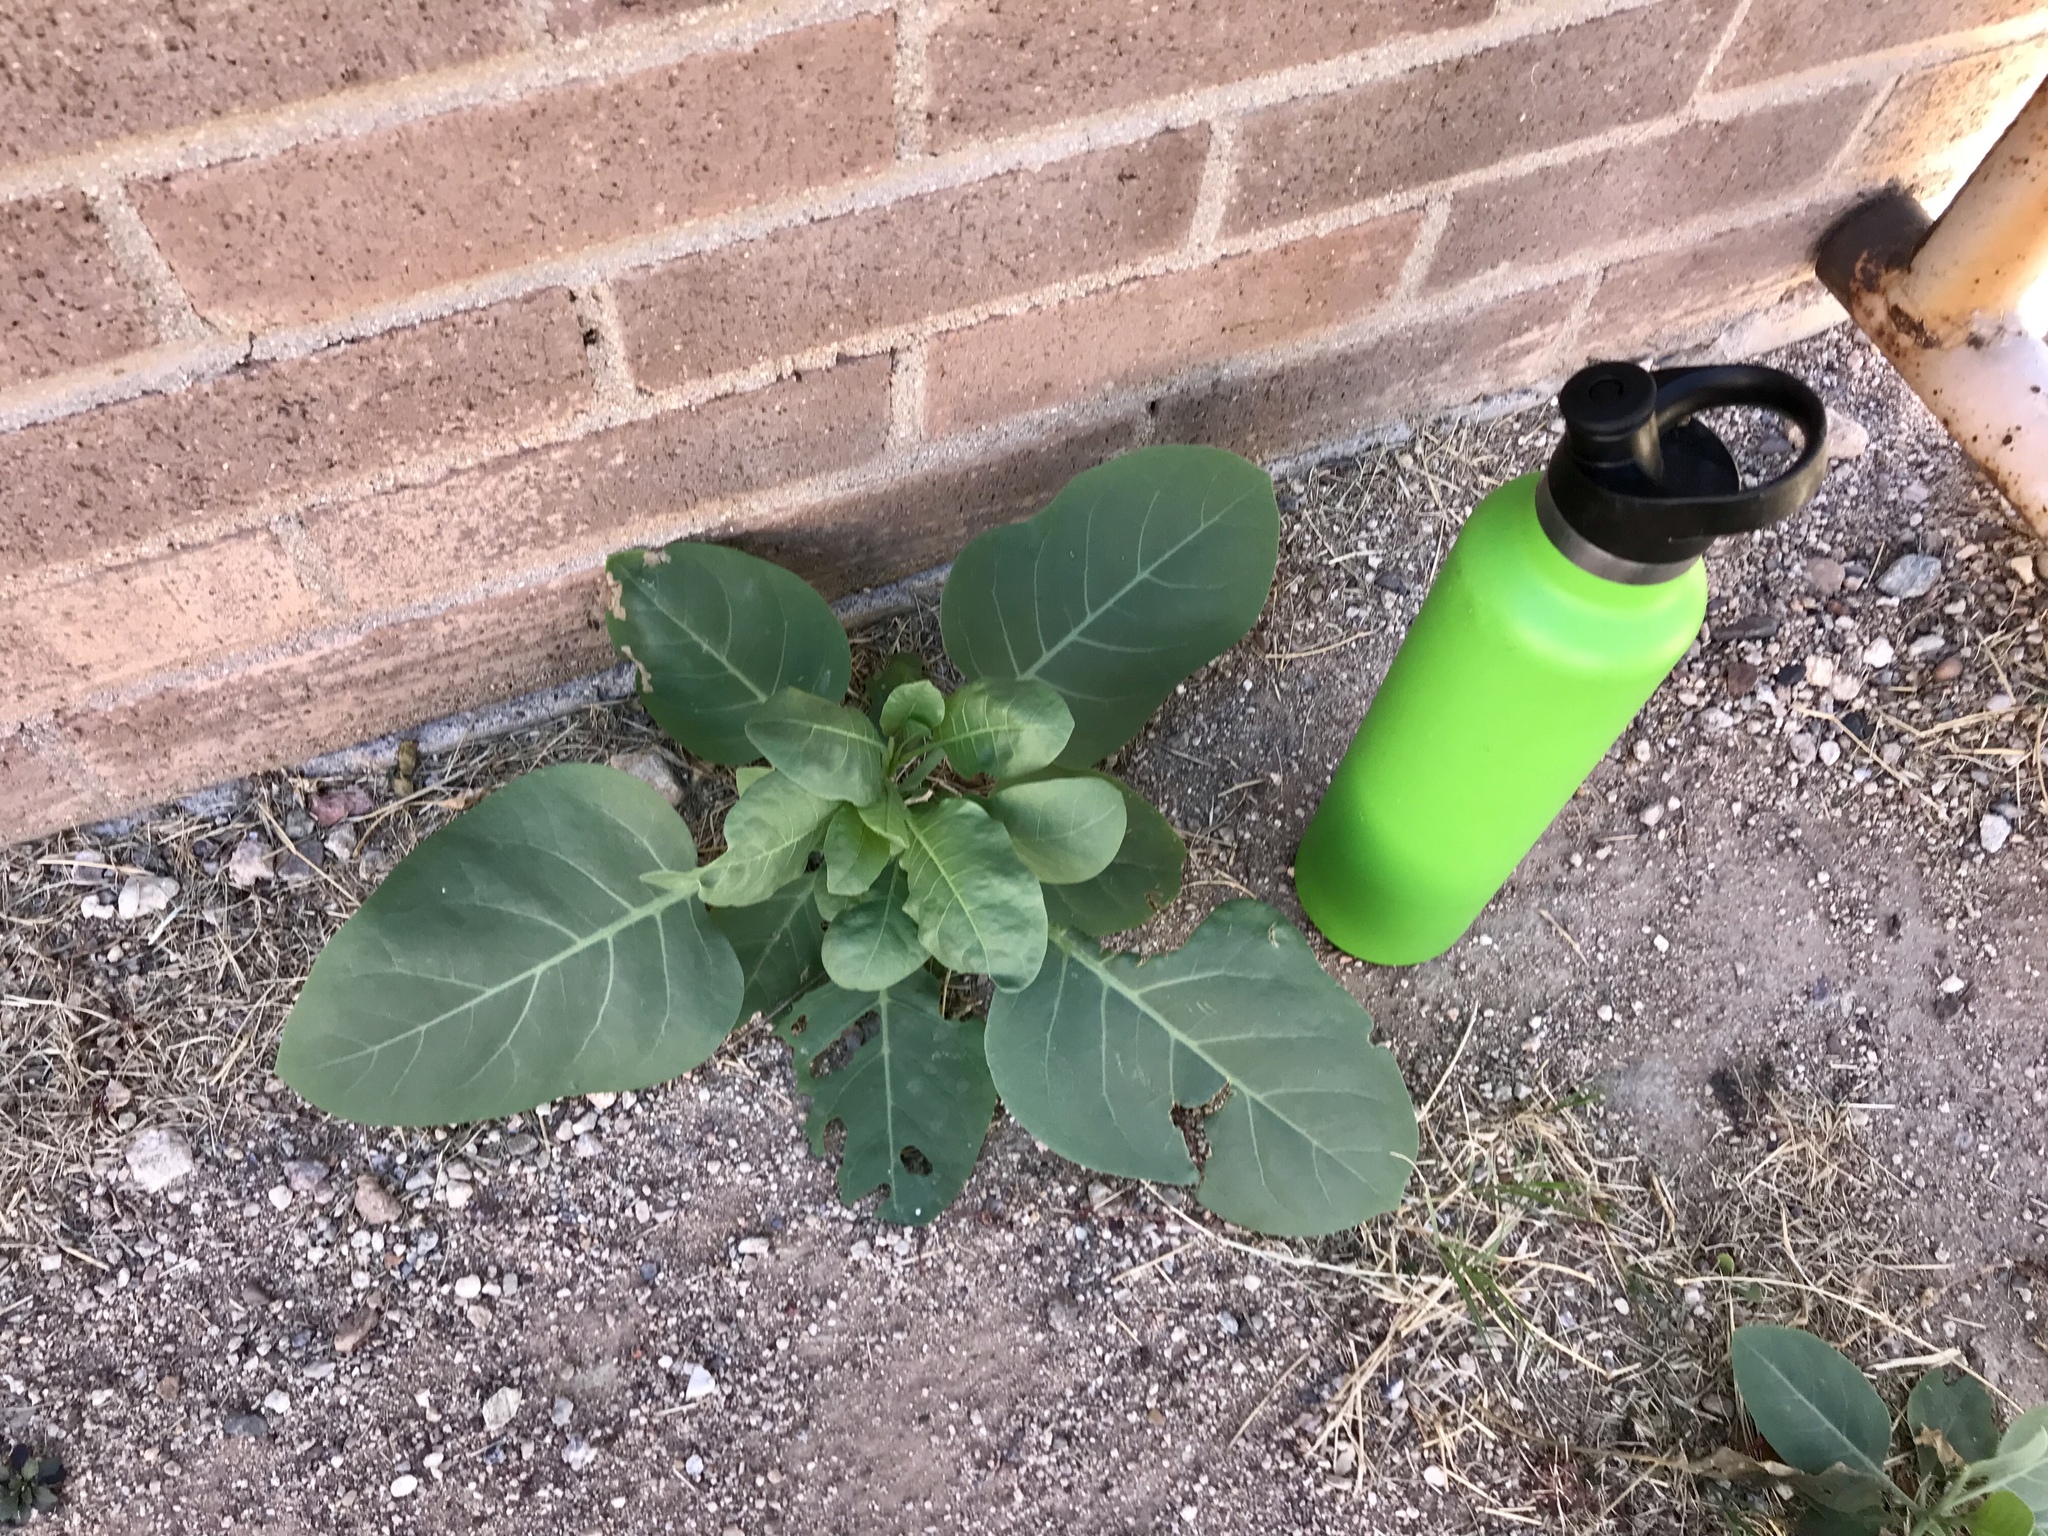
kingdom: Plantae
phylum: Tracheophyta
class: Magnoliopsida
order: Solanales
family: Solanaceae
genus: Nicotiana
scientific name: Nicotiana glauca
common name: Tree tobacco
